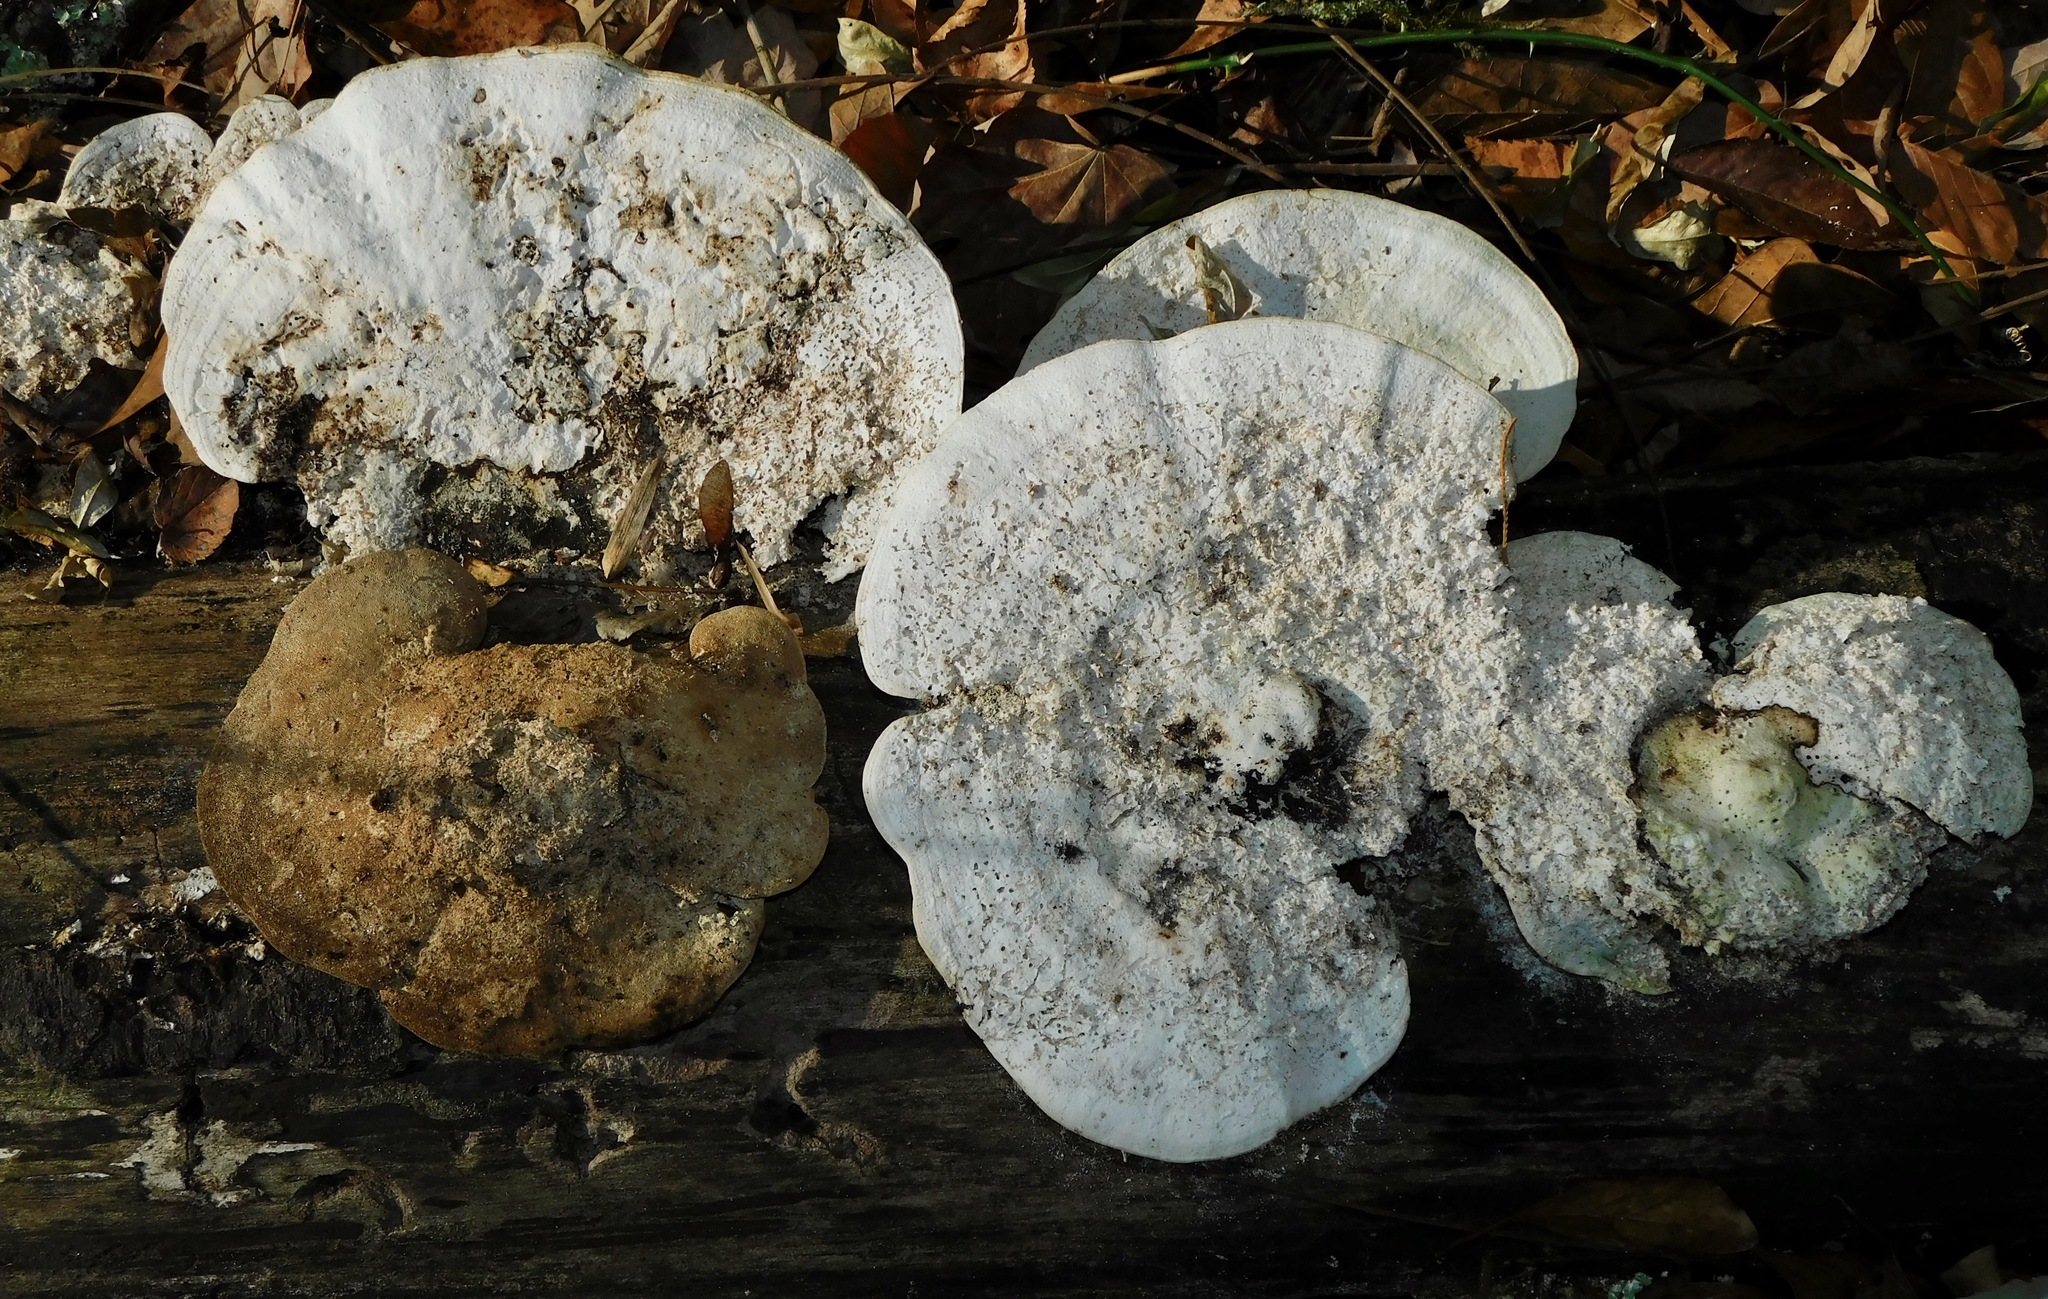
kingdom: Fungi
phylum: Basidiomycota
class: Agaricomycetes
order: Polyporales
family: Polyporaceae
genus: Trametes
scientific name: Trametes
